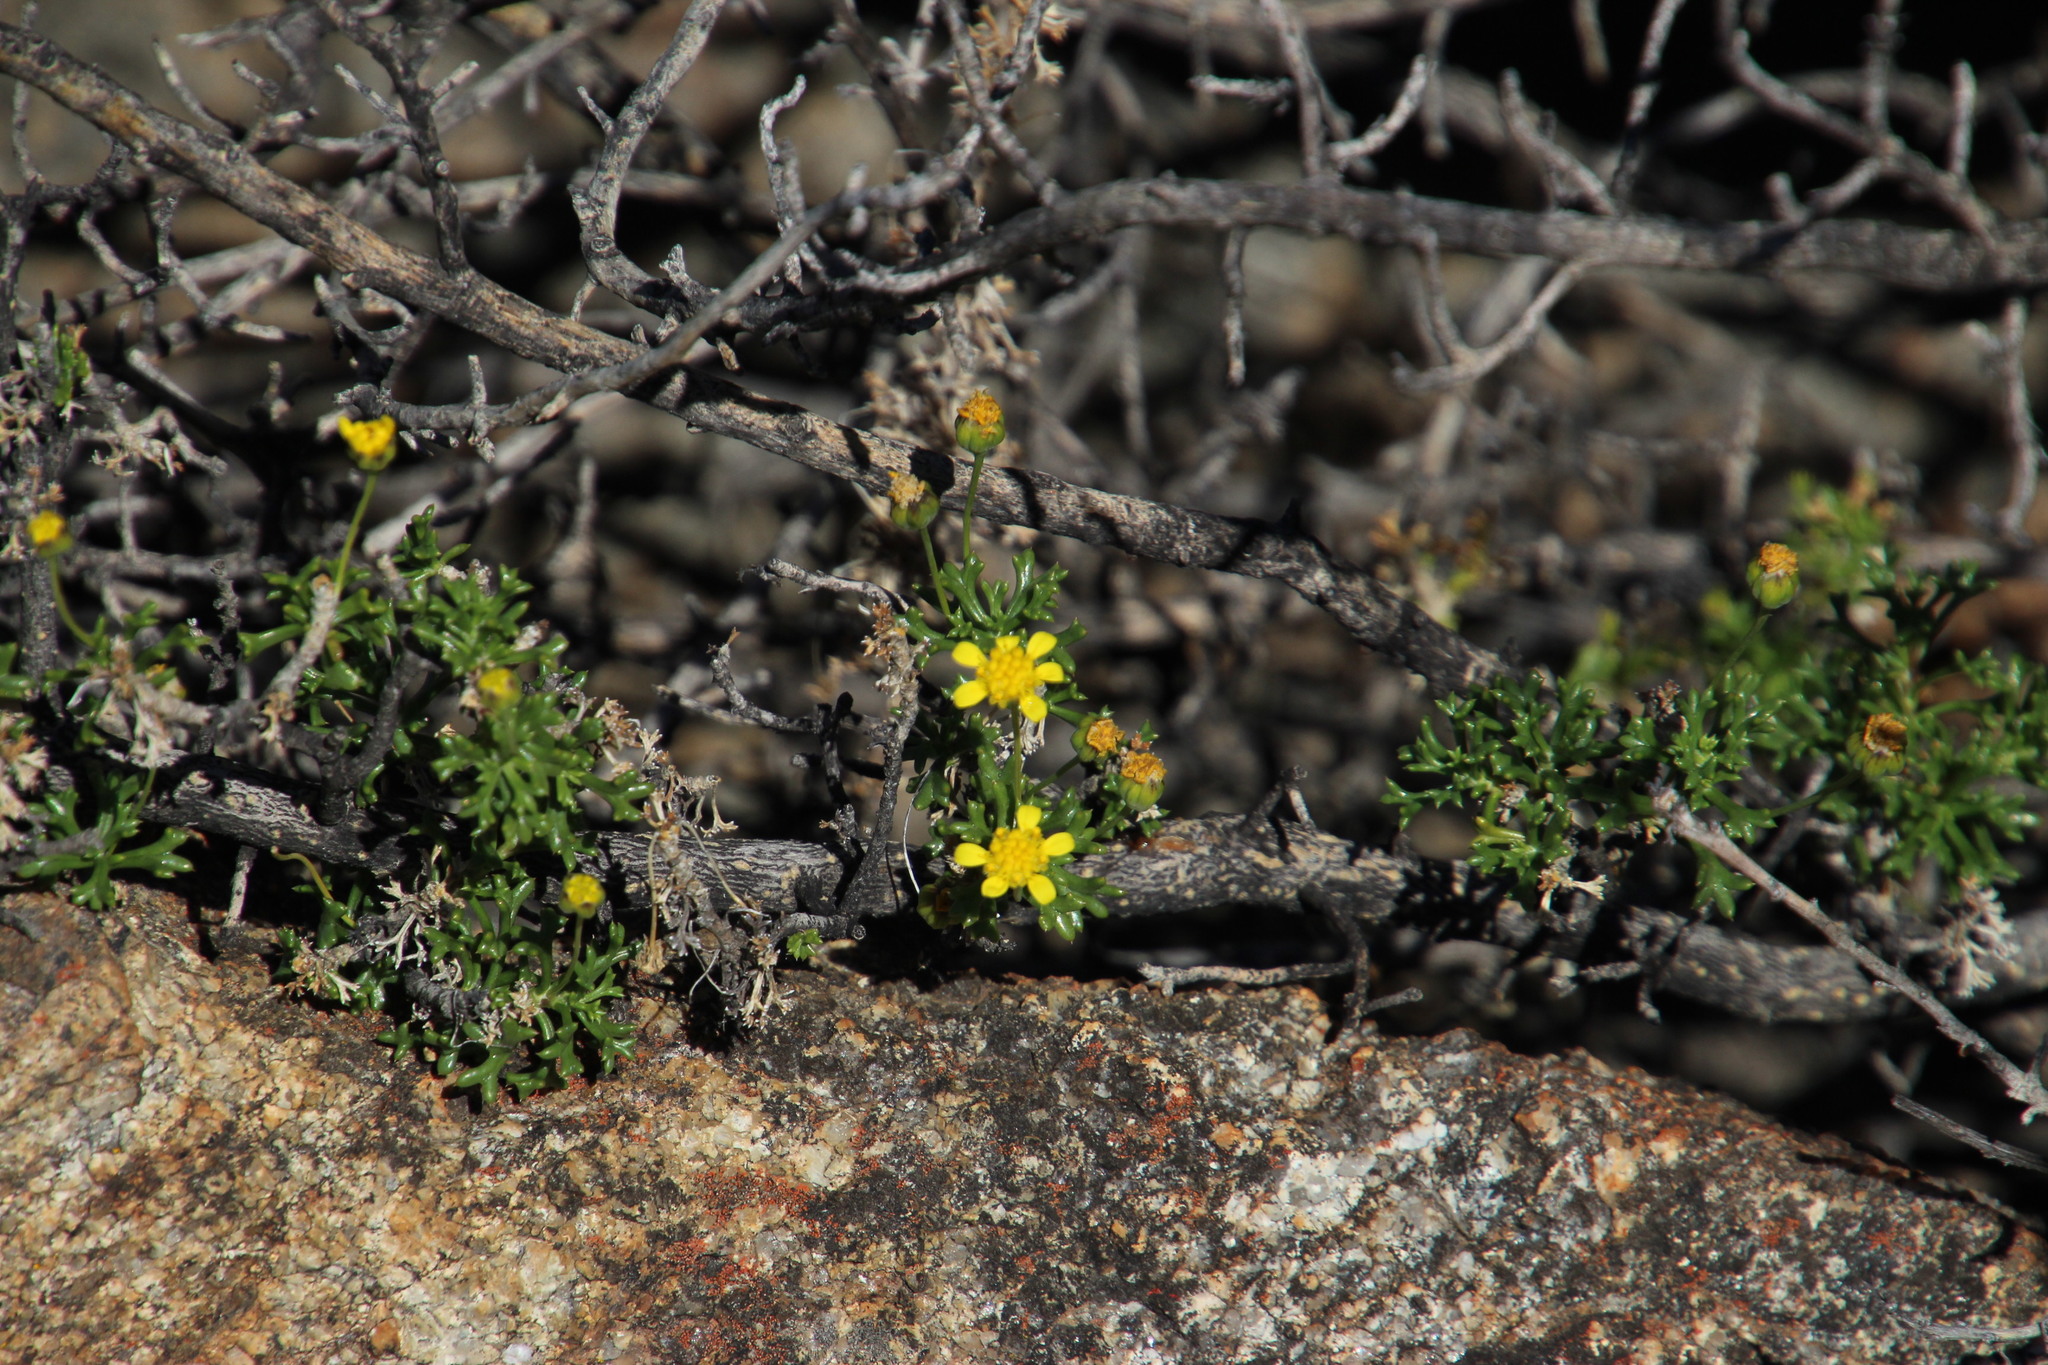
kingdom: Plantae
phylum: Tracheophyta
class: Magnoliopsida
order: Asterales
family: Asteraceae
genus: Euryops
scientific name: Euryops multifidus
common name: Hawk's eye
